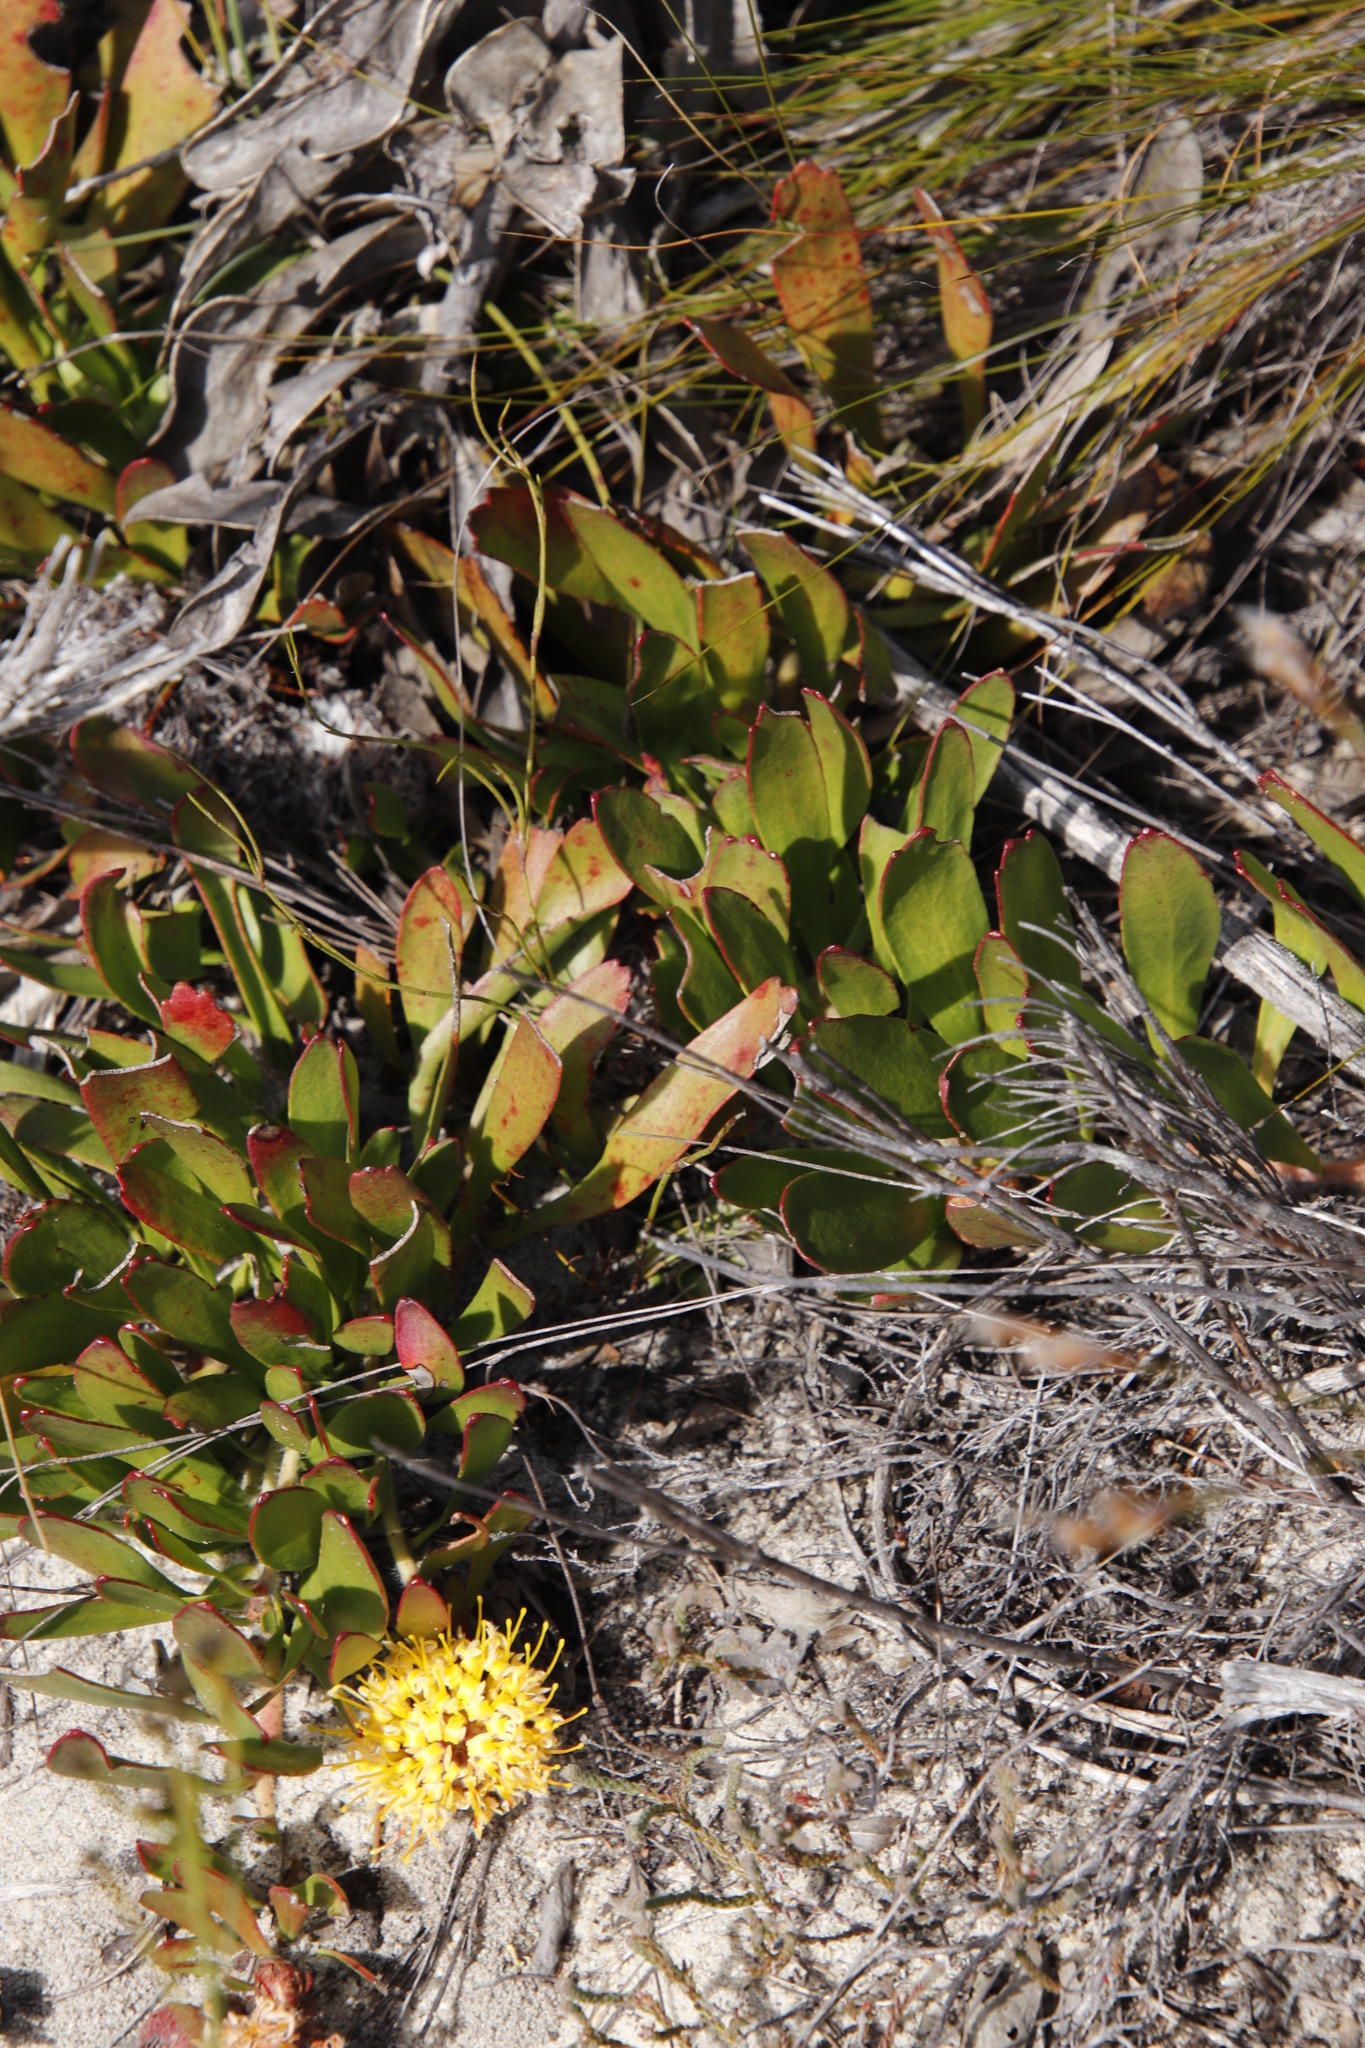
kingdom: Plantae
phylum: Tracheophyta
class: Magnoliopsida
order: Proteales
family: Proteaceae
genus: Leucospermum
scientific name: Leucospermum hypophyllocarpodendron
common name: Snakestem pincushion
